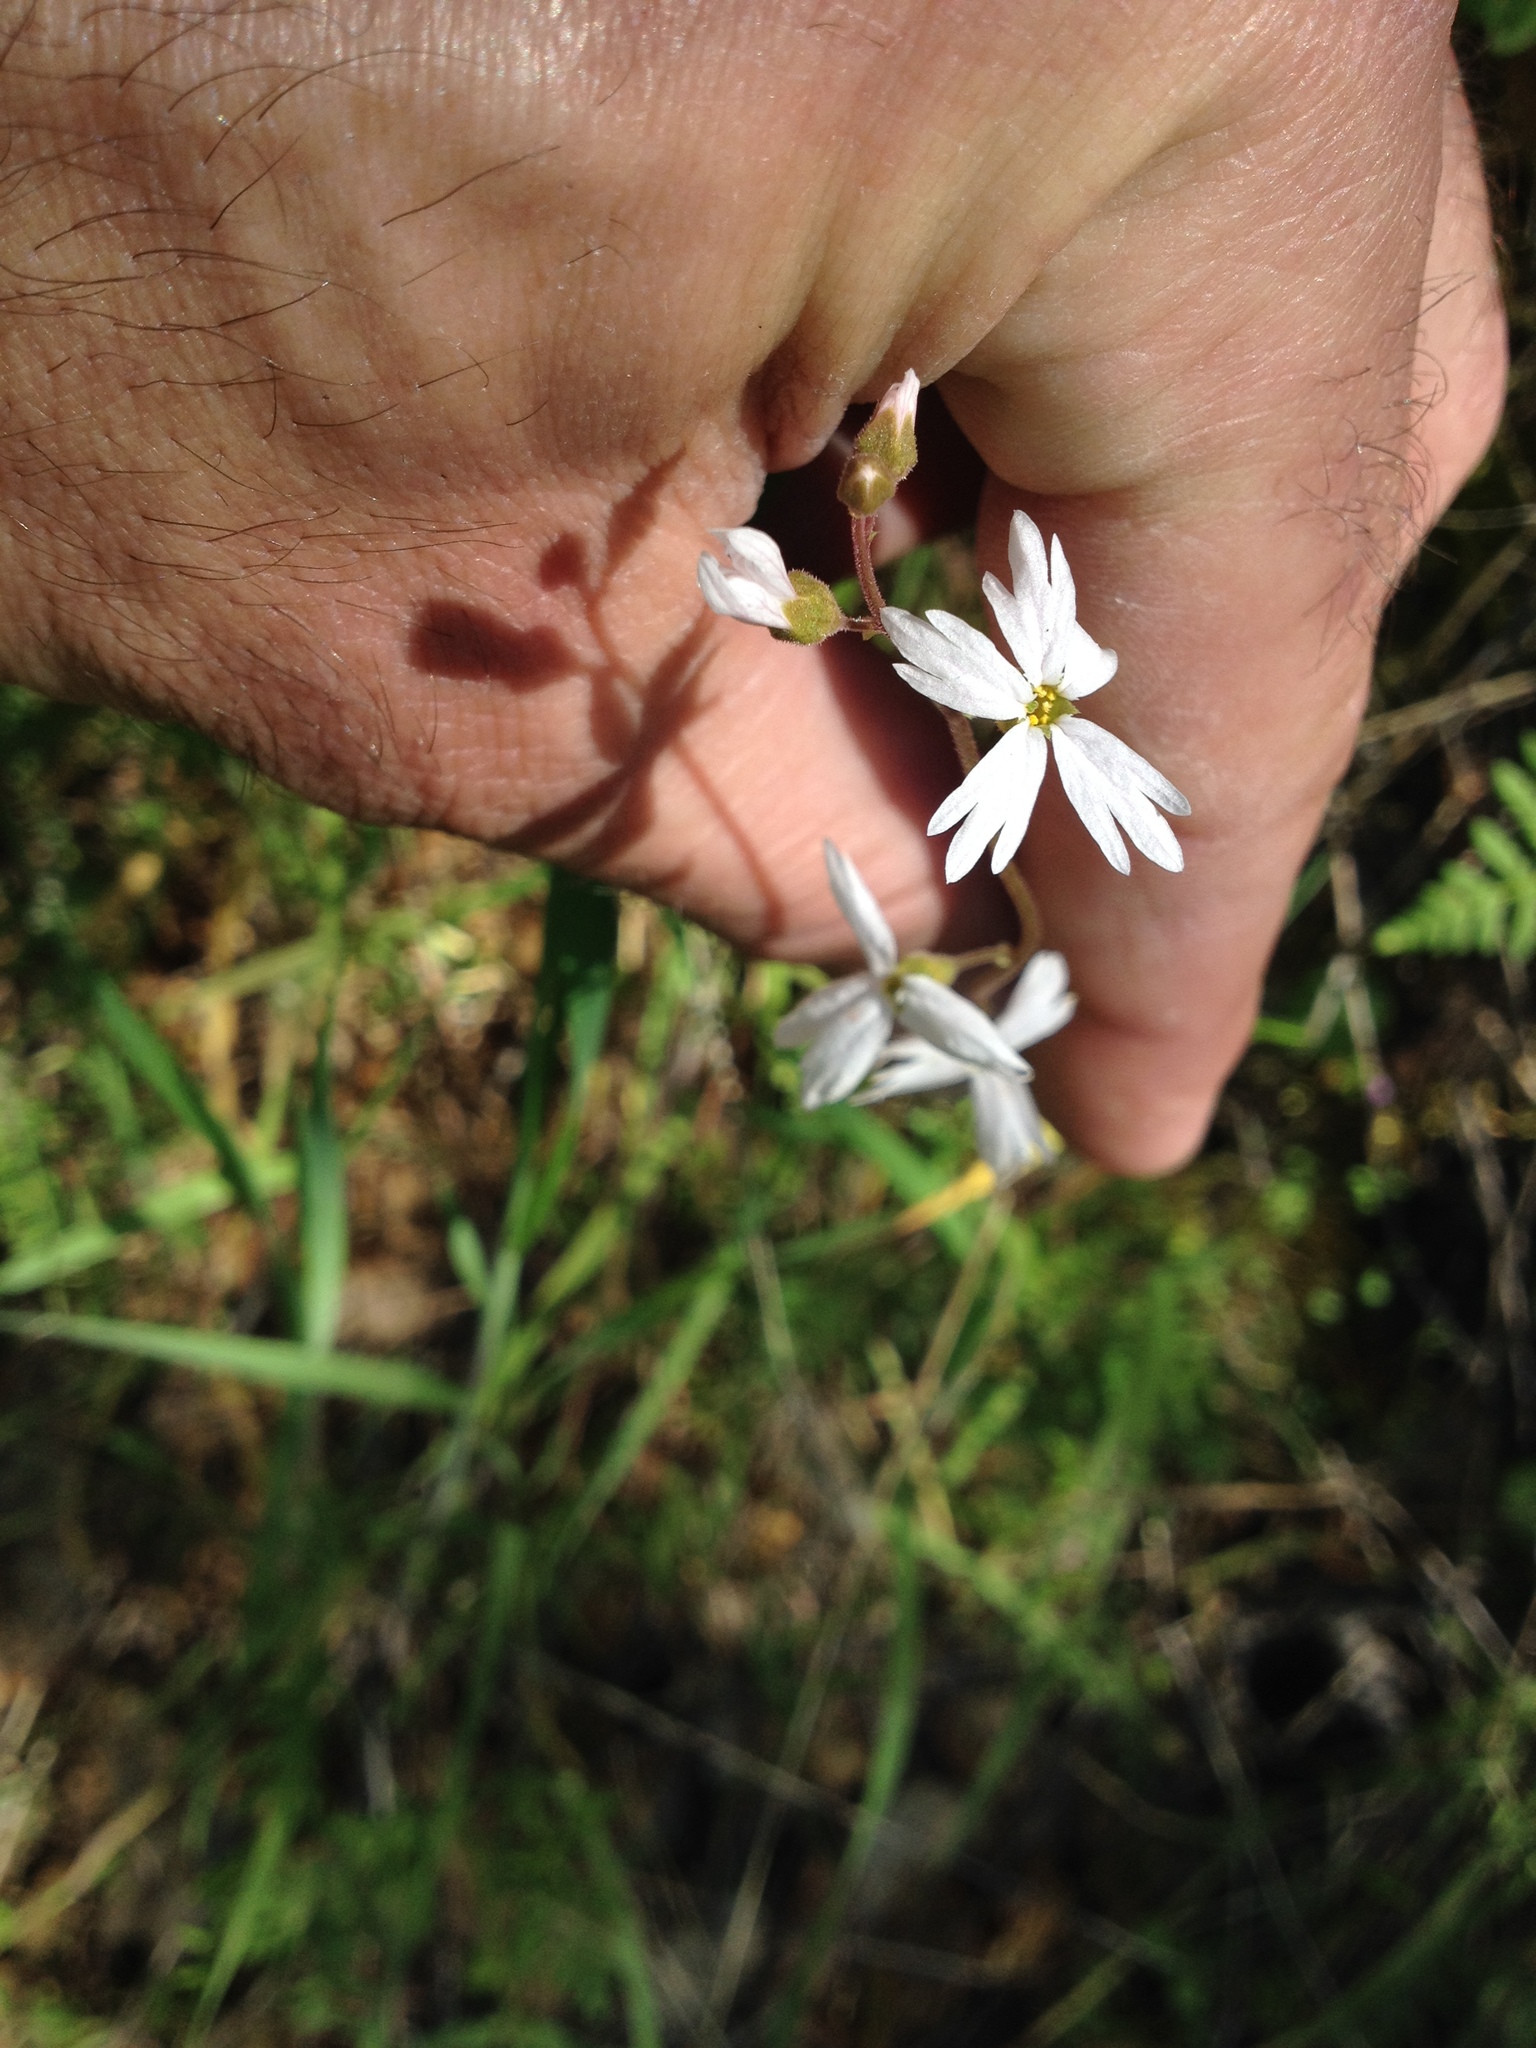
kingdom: Plantae
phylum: Tracheophyta
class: Magnoliopsida
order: Saxifragales
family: Saxifragaceae
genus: Lithophragma
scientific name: Lithophragma affine
